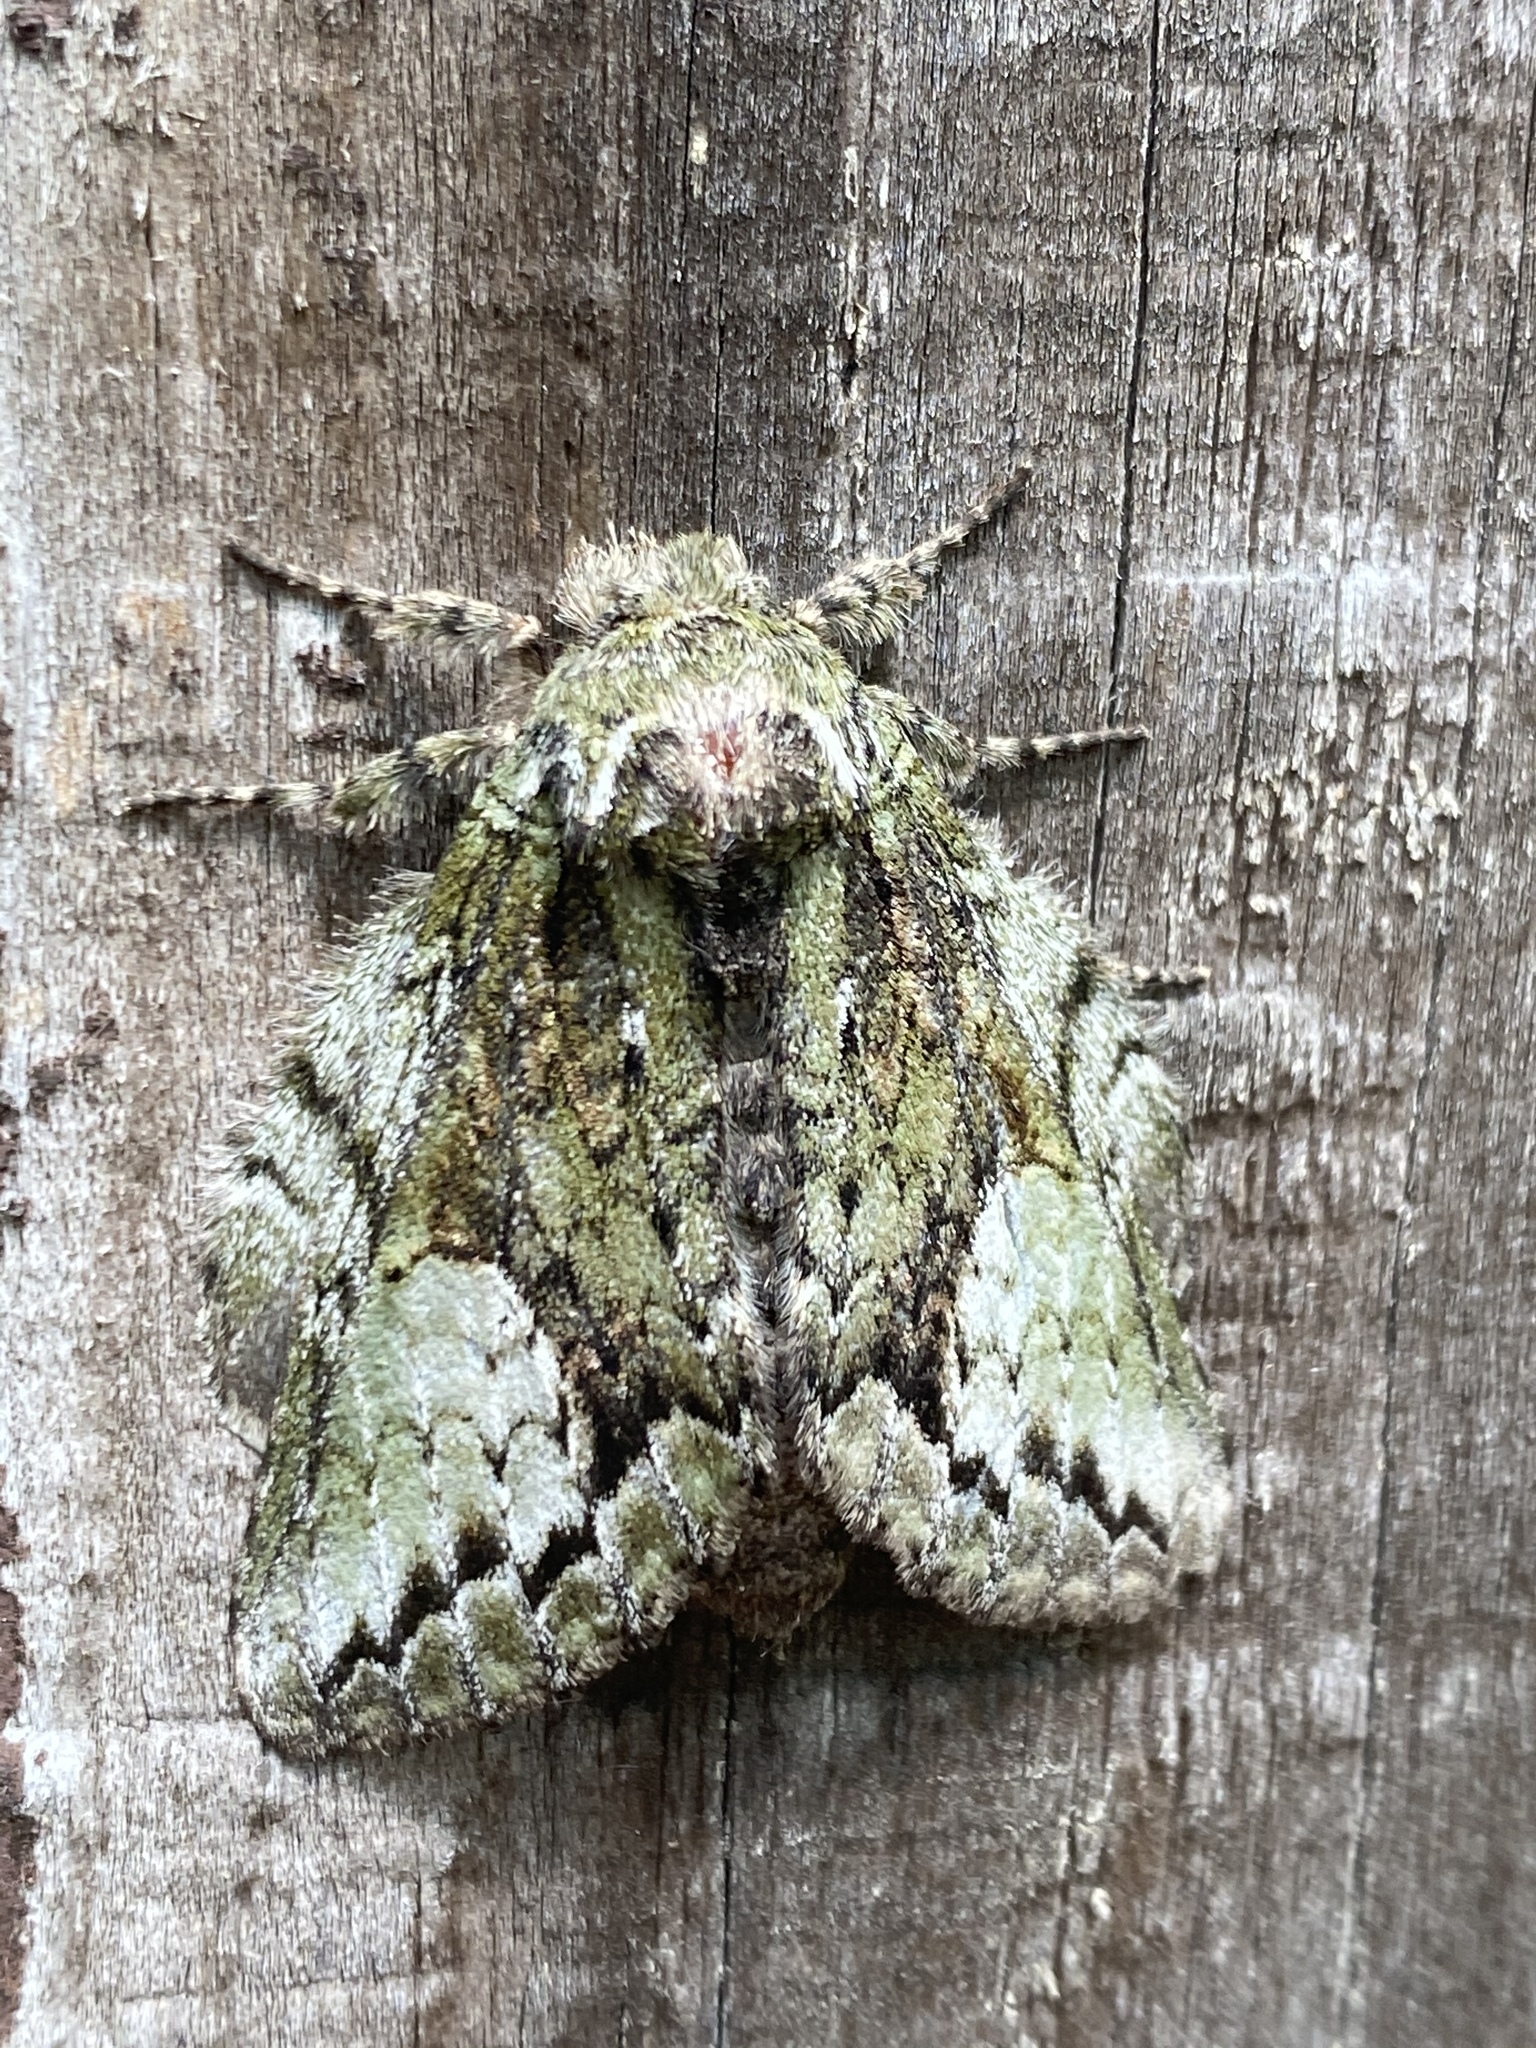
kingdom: Animalia
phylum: Arthropoda
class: Insecta
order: Lepidoptera
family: Notodontidae
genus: Heterocampa
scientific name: Heterocampa
